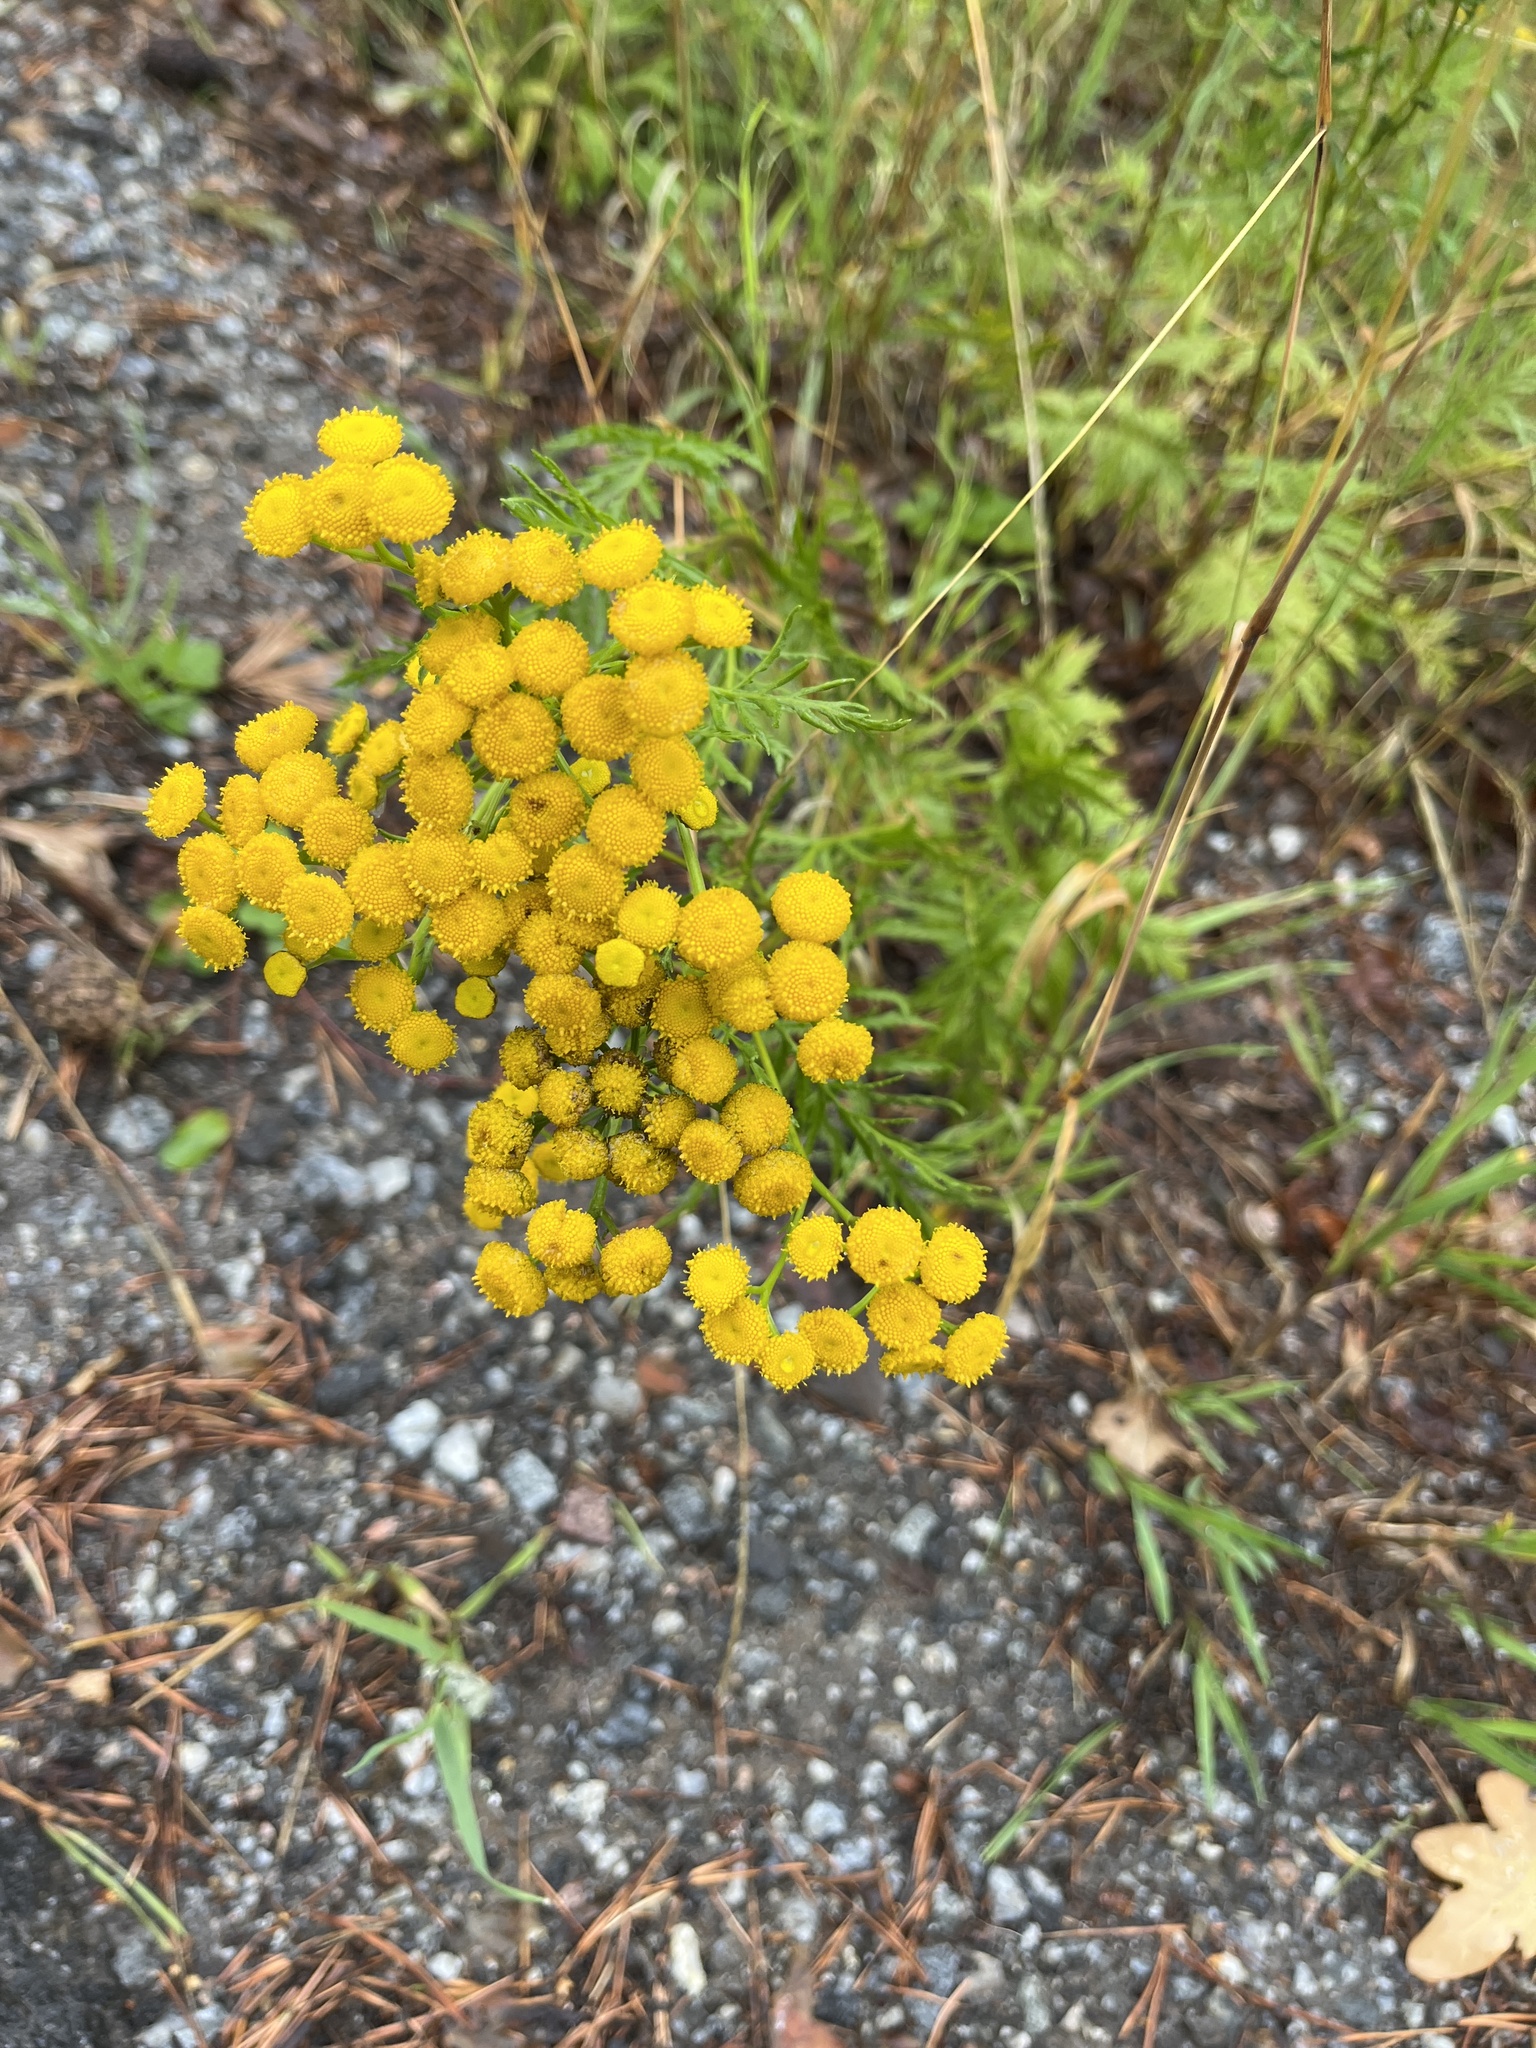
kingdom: Plantae
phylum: Tracheophyta
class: Magnoliopsida
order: Asterales
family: Asteraceae
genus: Tanacetum
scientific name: Tanacetum vulgare
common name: Common tansy
